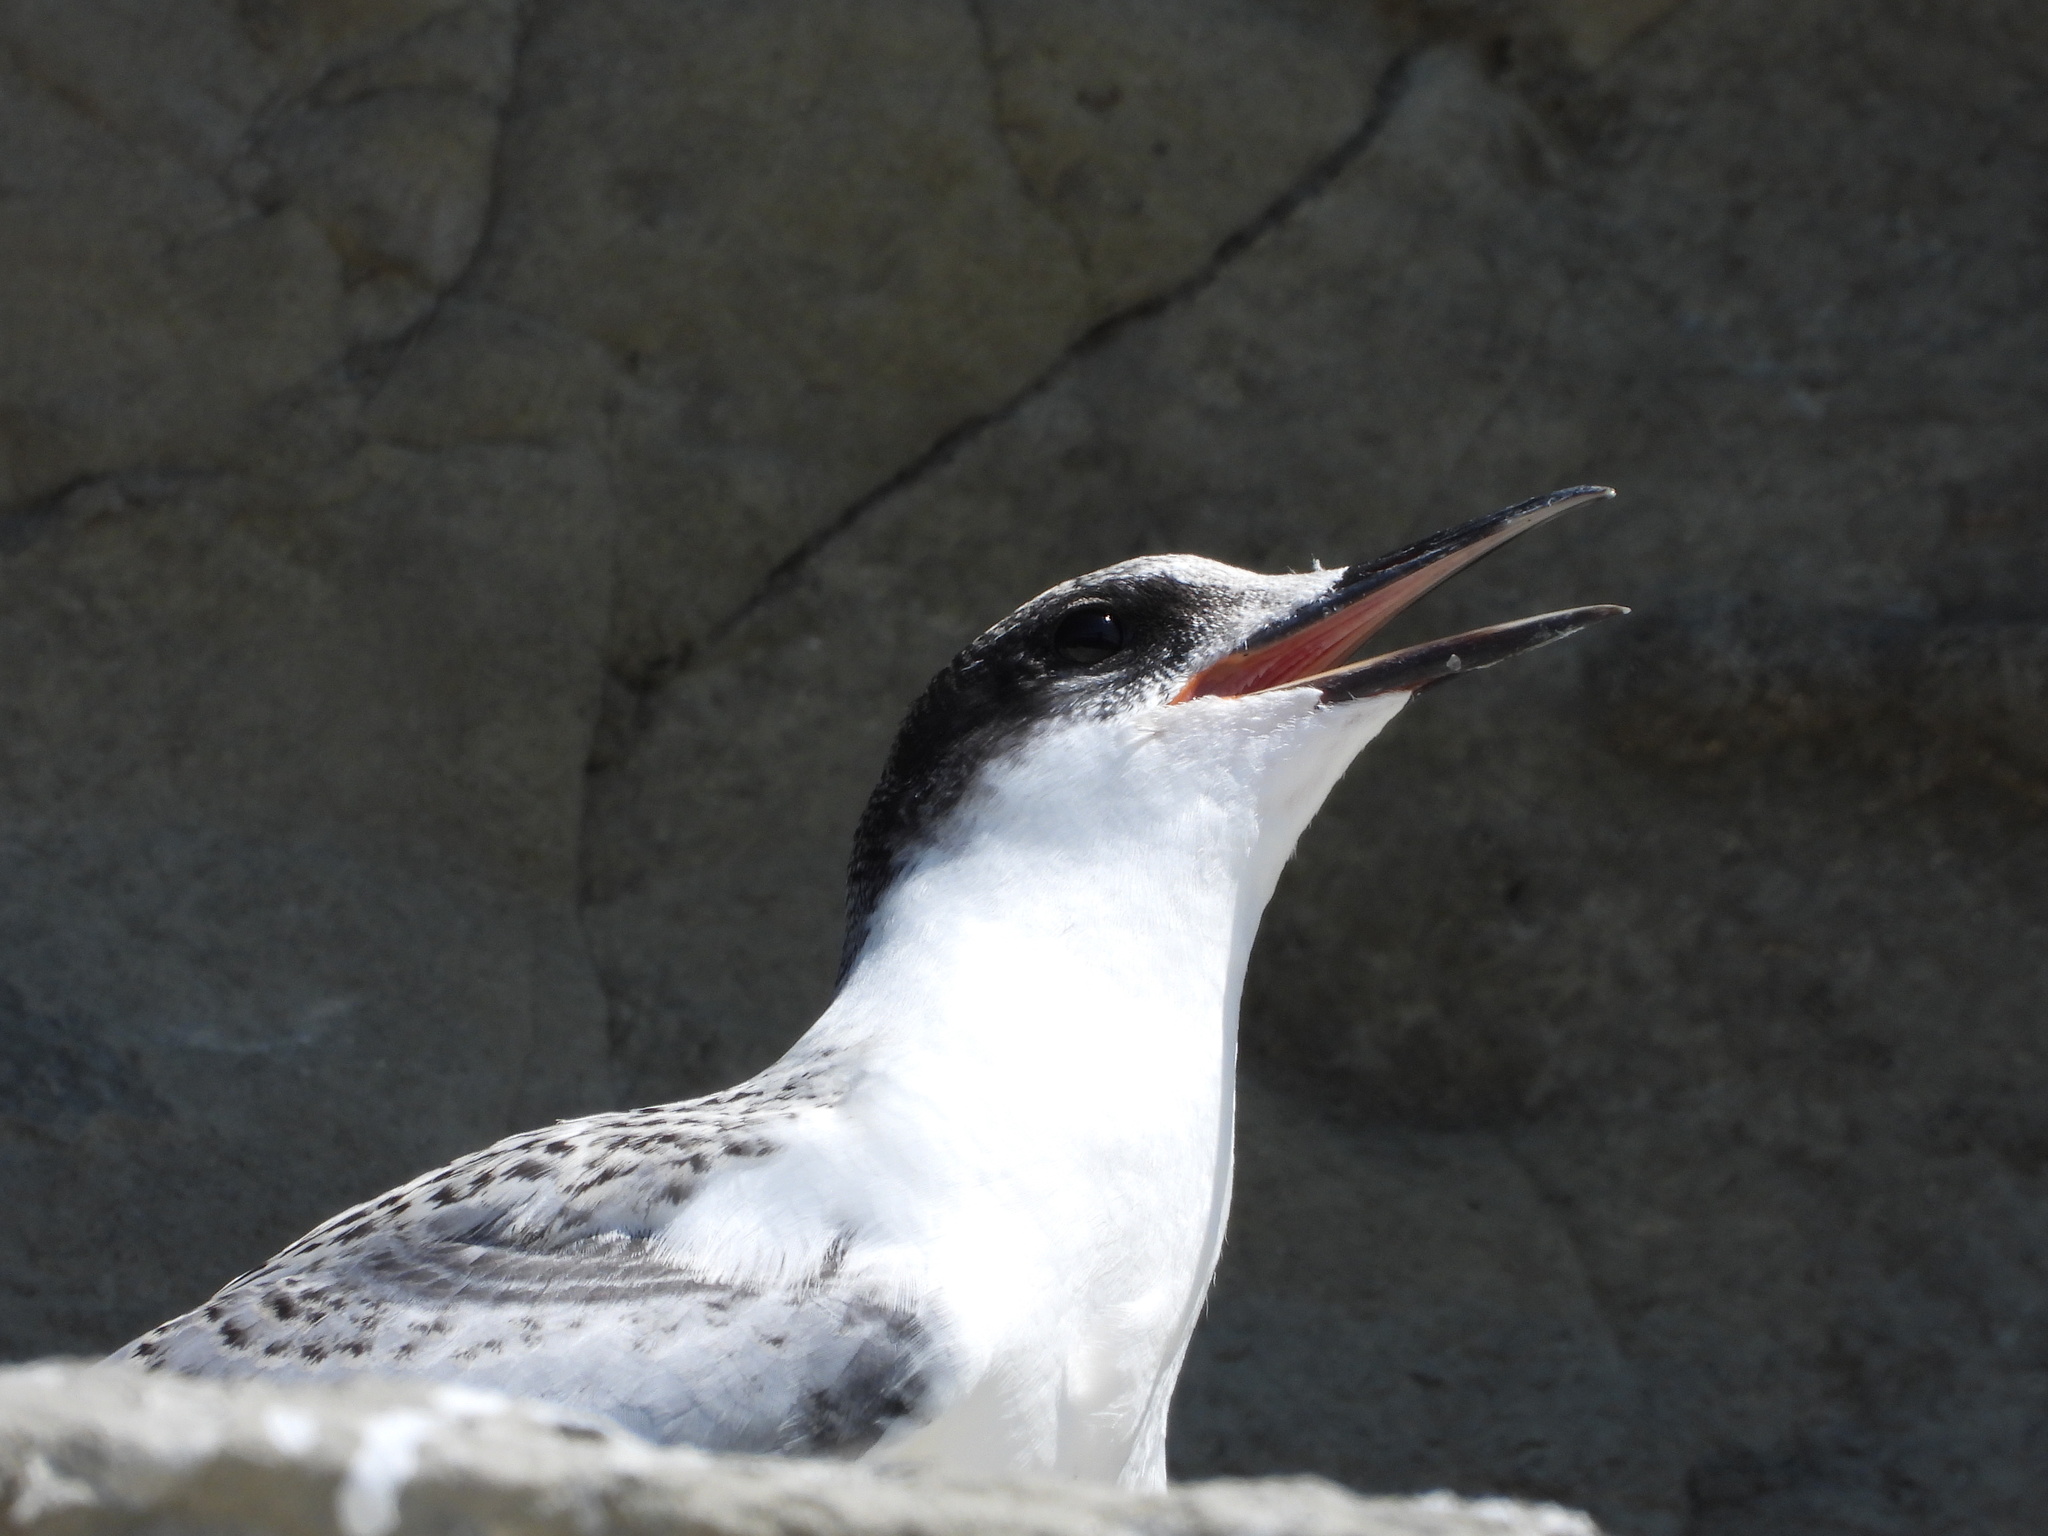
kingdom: Animalia
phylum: Chordata
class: Aves
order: Charadriiformes
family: Laridae
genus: Sterna
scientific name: Sterna striata
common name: White-fronted tern
